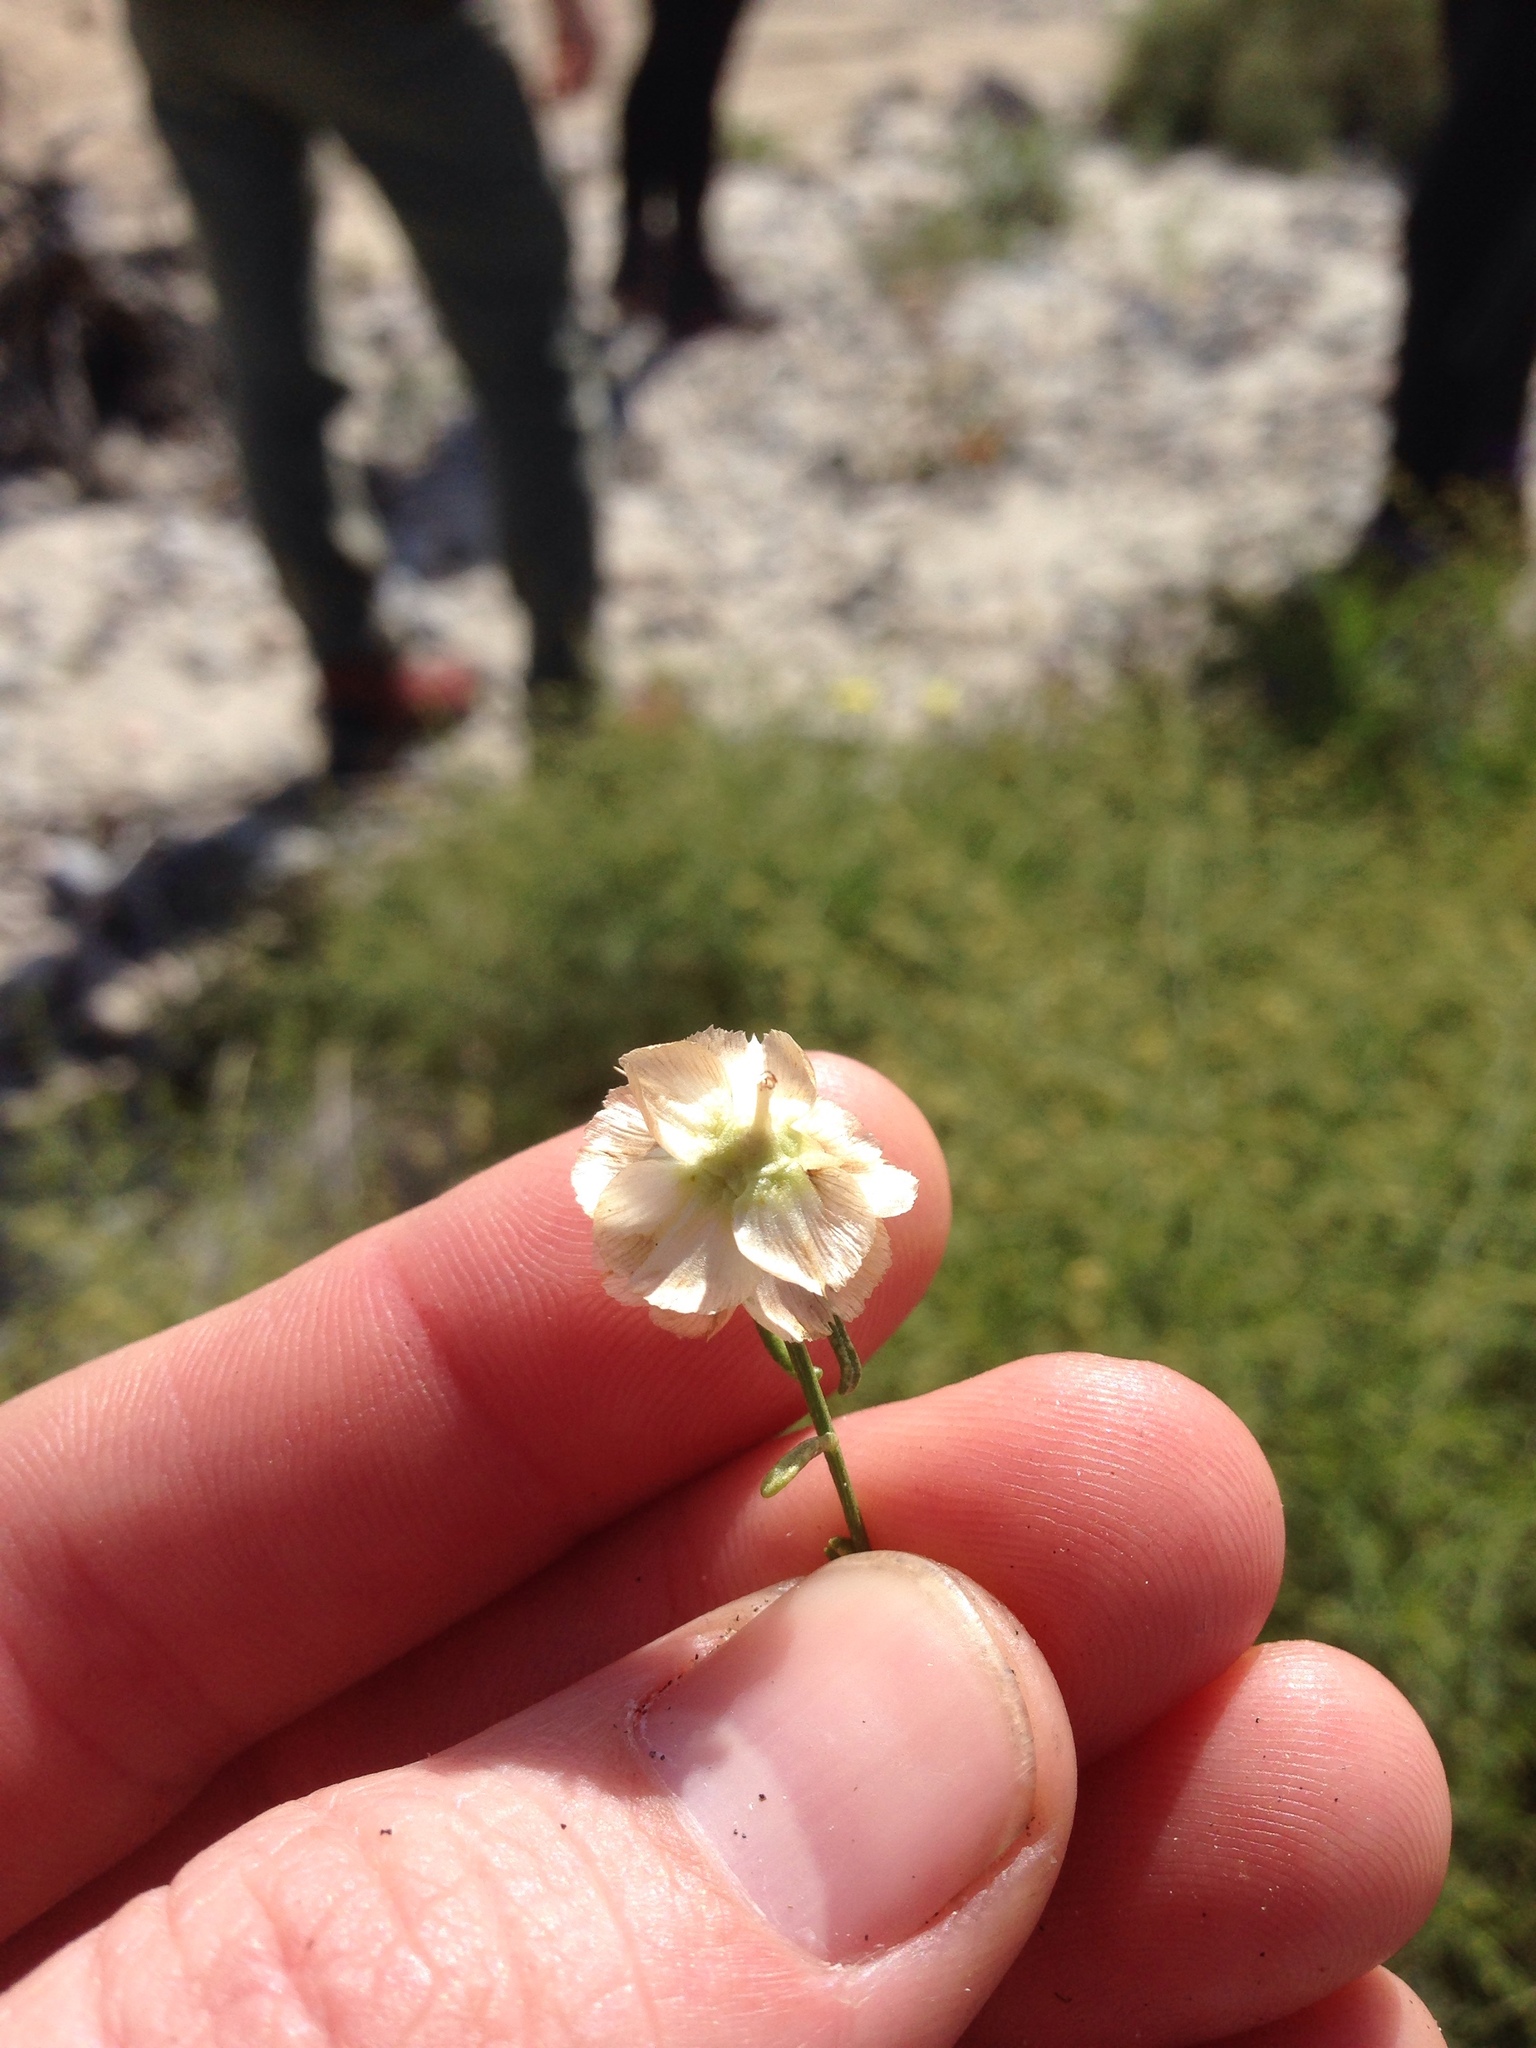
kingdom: Plantae
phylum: Tracheophyta
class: Magnoliopsida
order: Asterales
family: Asteraceae
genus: Ambrosia
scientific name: Ambrosia salsola
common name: Burrobrush
